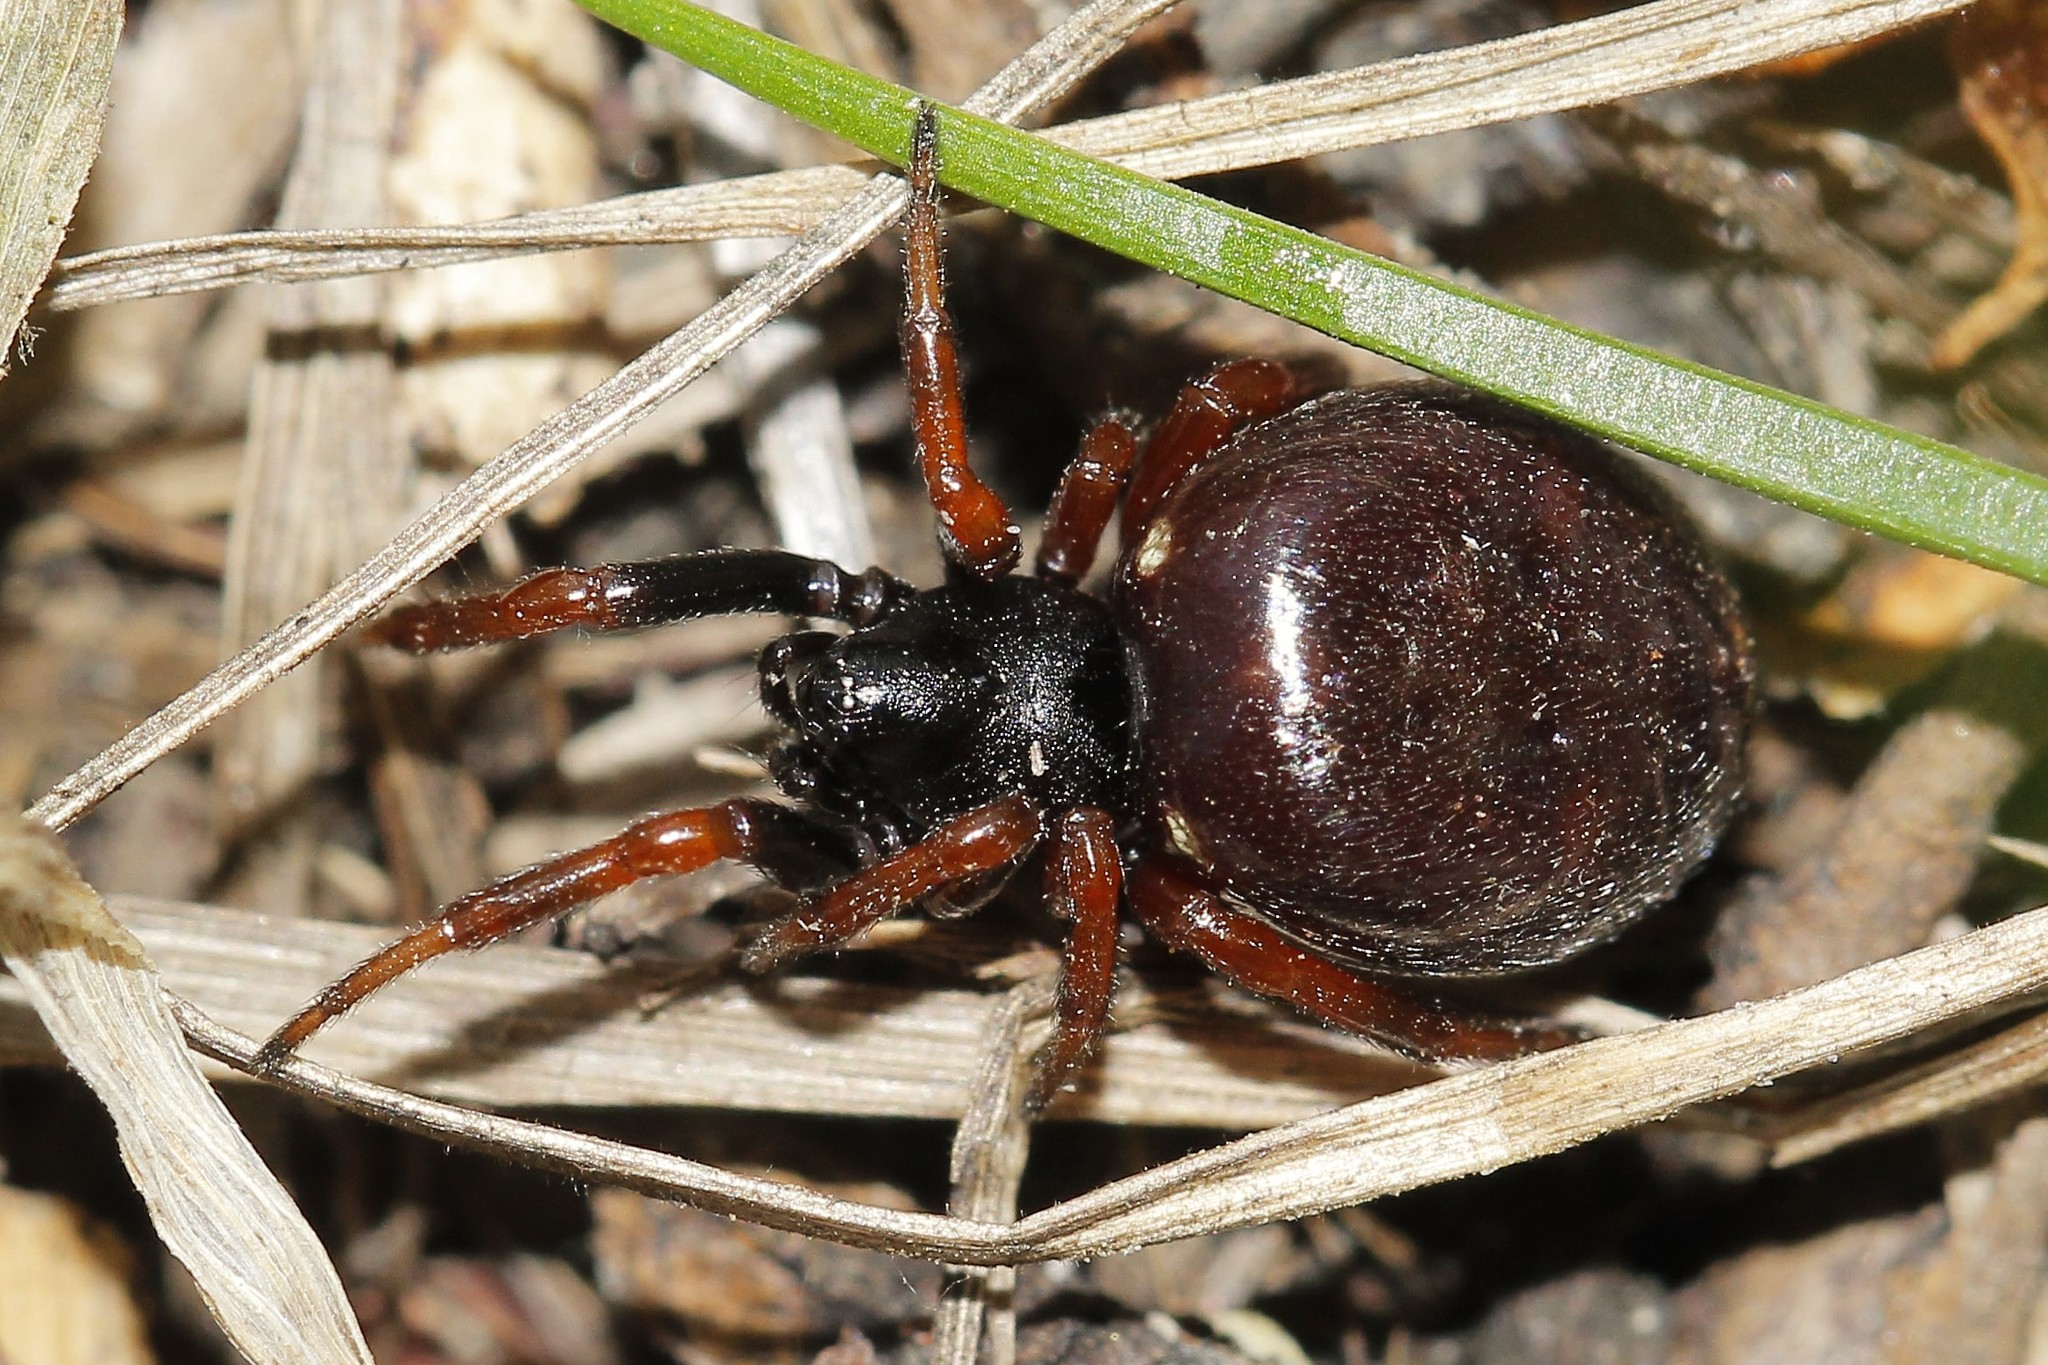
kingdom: Animalia
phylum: Arthropoda
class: Arachnida
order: Araneae
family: Theridiidae
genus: Asagena
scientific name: Asagena meridionalis
